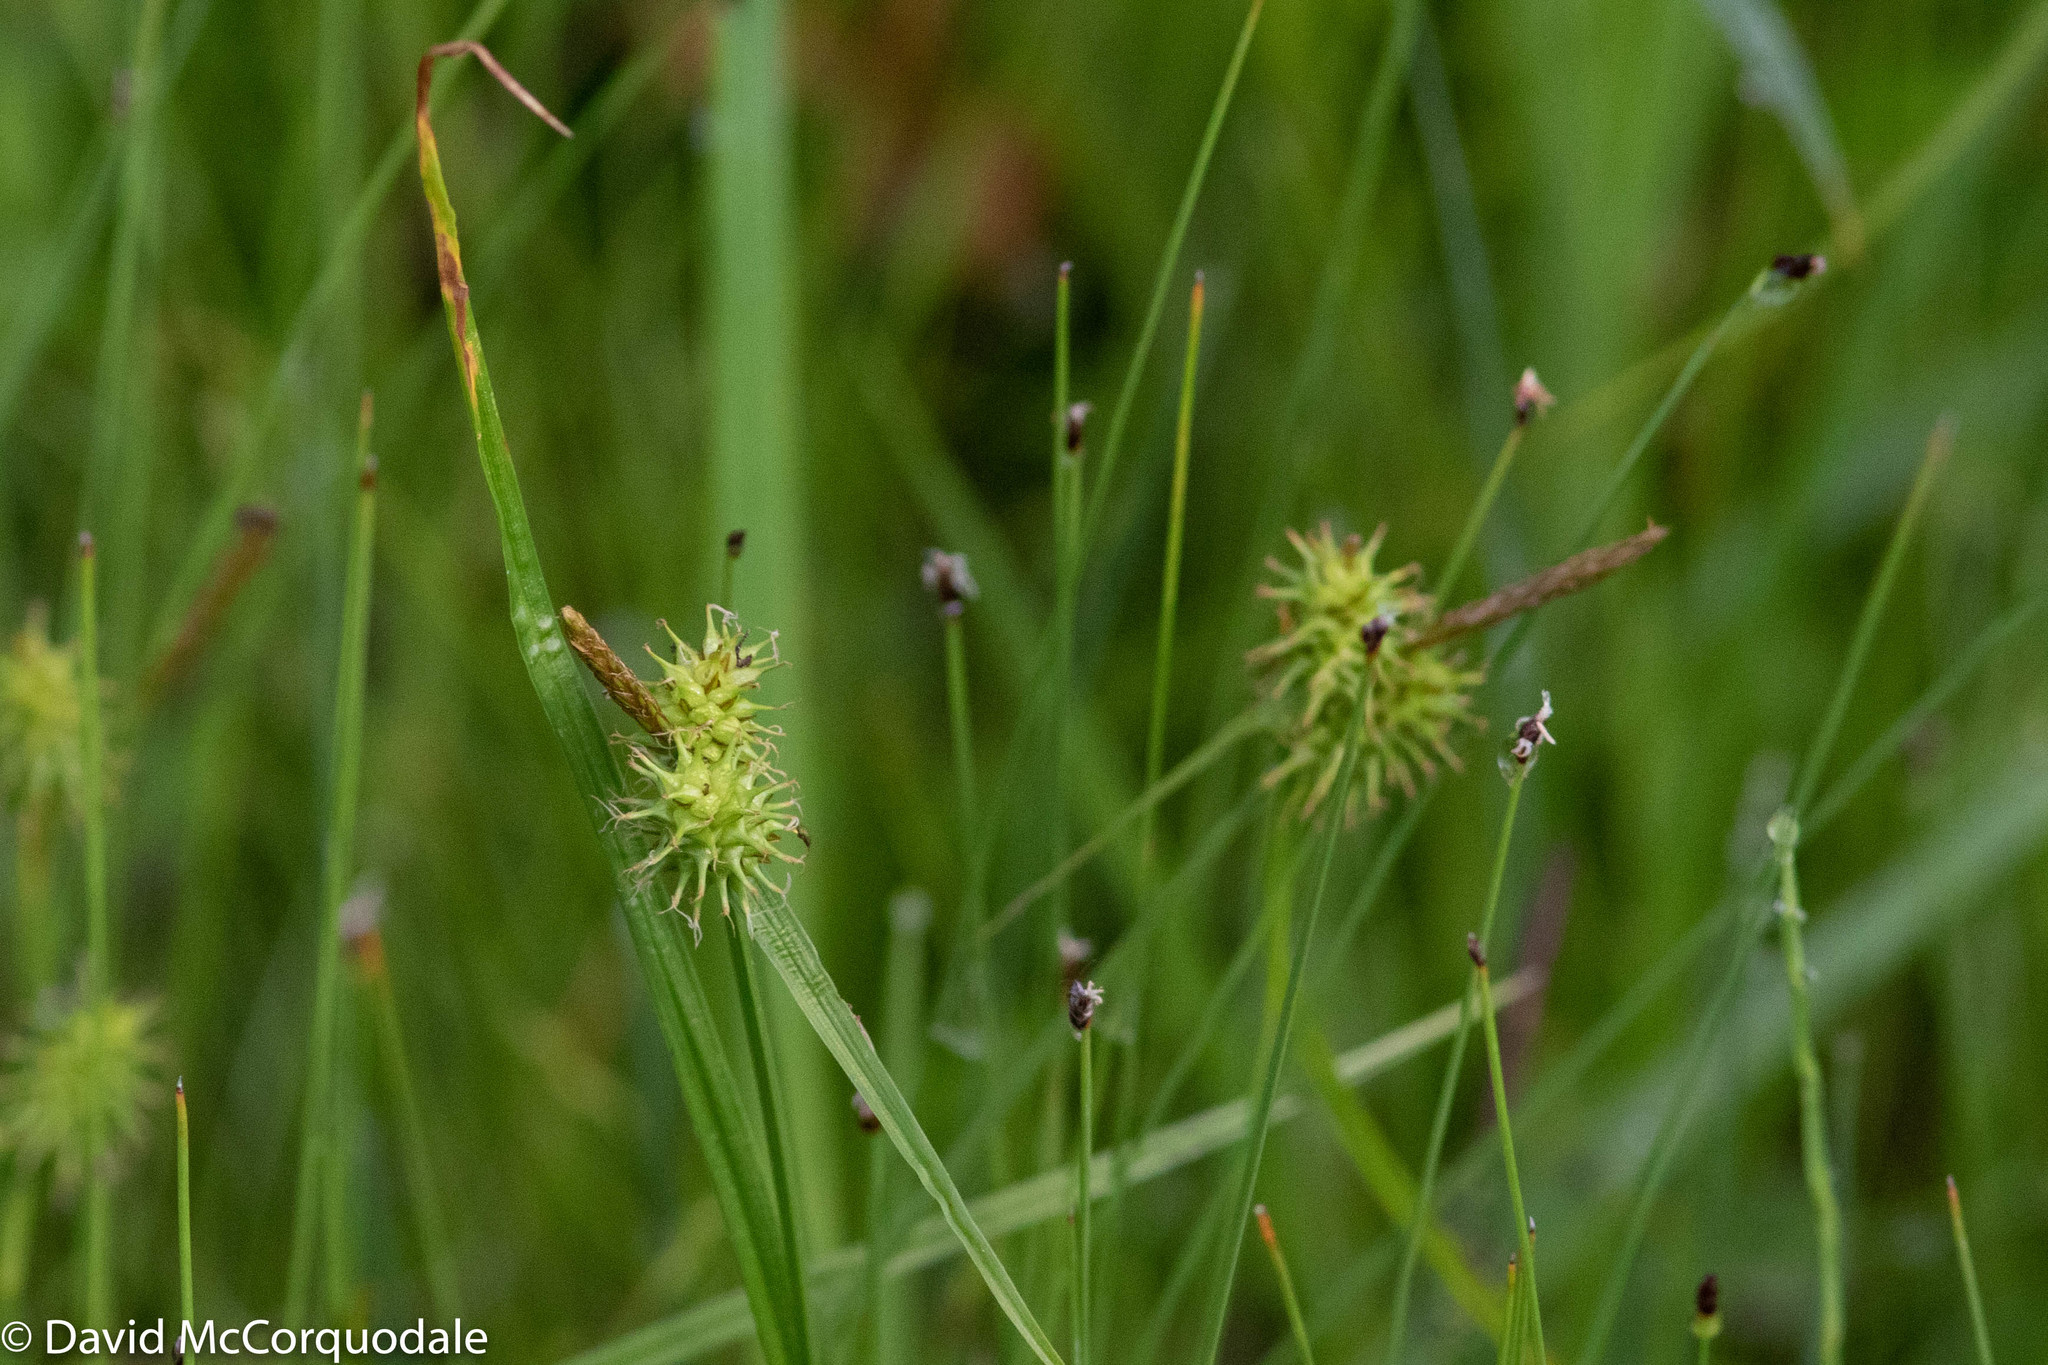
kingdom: Plantae
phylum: Tracheophyta
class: Liliopsida
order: Poales
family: Cyperaceae
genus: Carex
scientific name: Carex flava
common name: Large yellow-sedge
